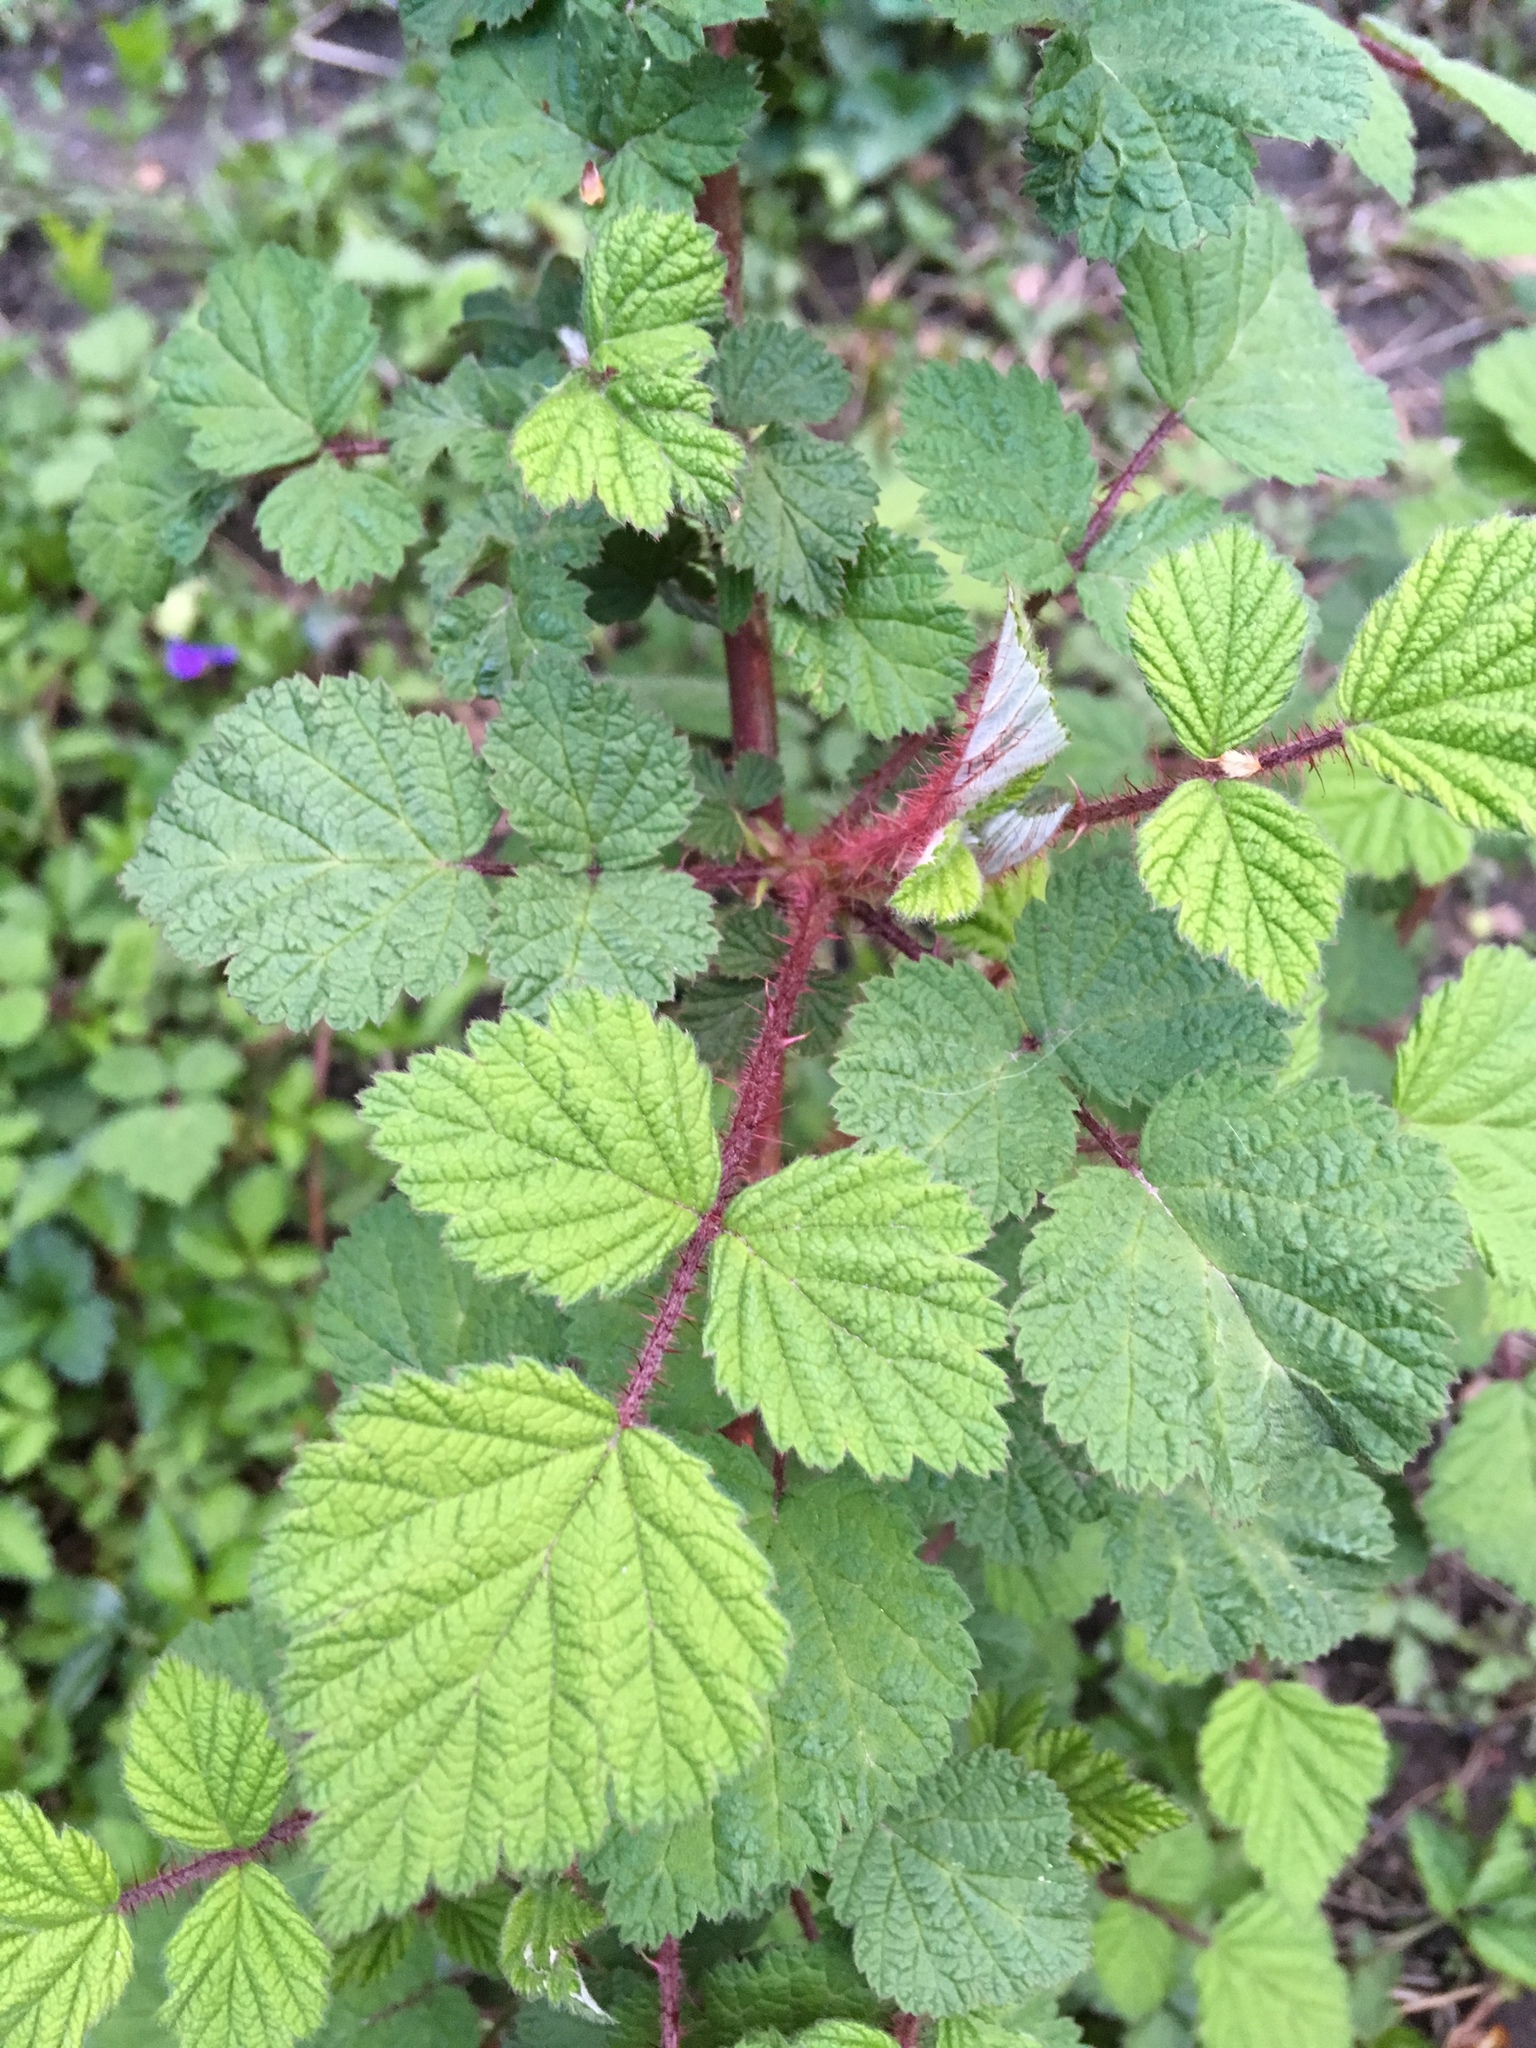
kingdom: Plantae
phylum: Tracheophyta
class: Magnoliopsida
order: Rosales
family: Rosaceae
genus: Rubus
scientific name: Rubus phoenicolasius
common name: Japanese wineberry
